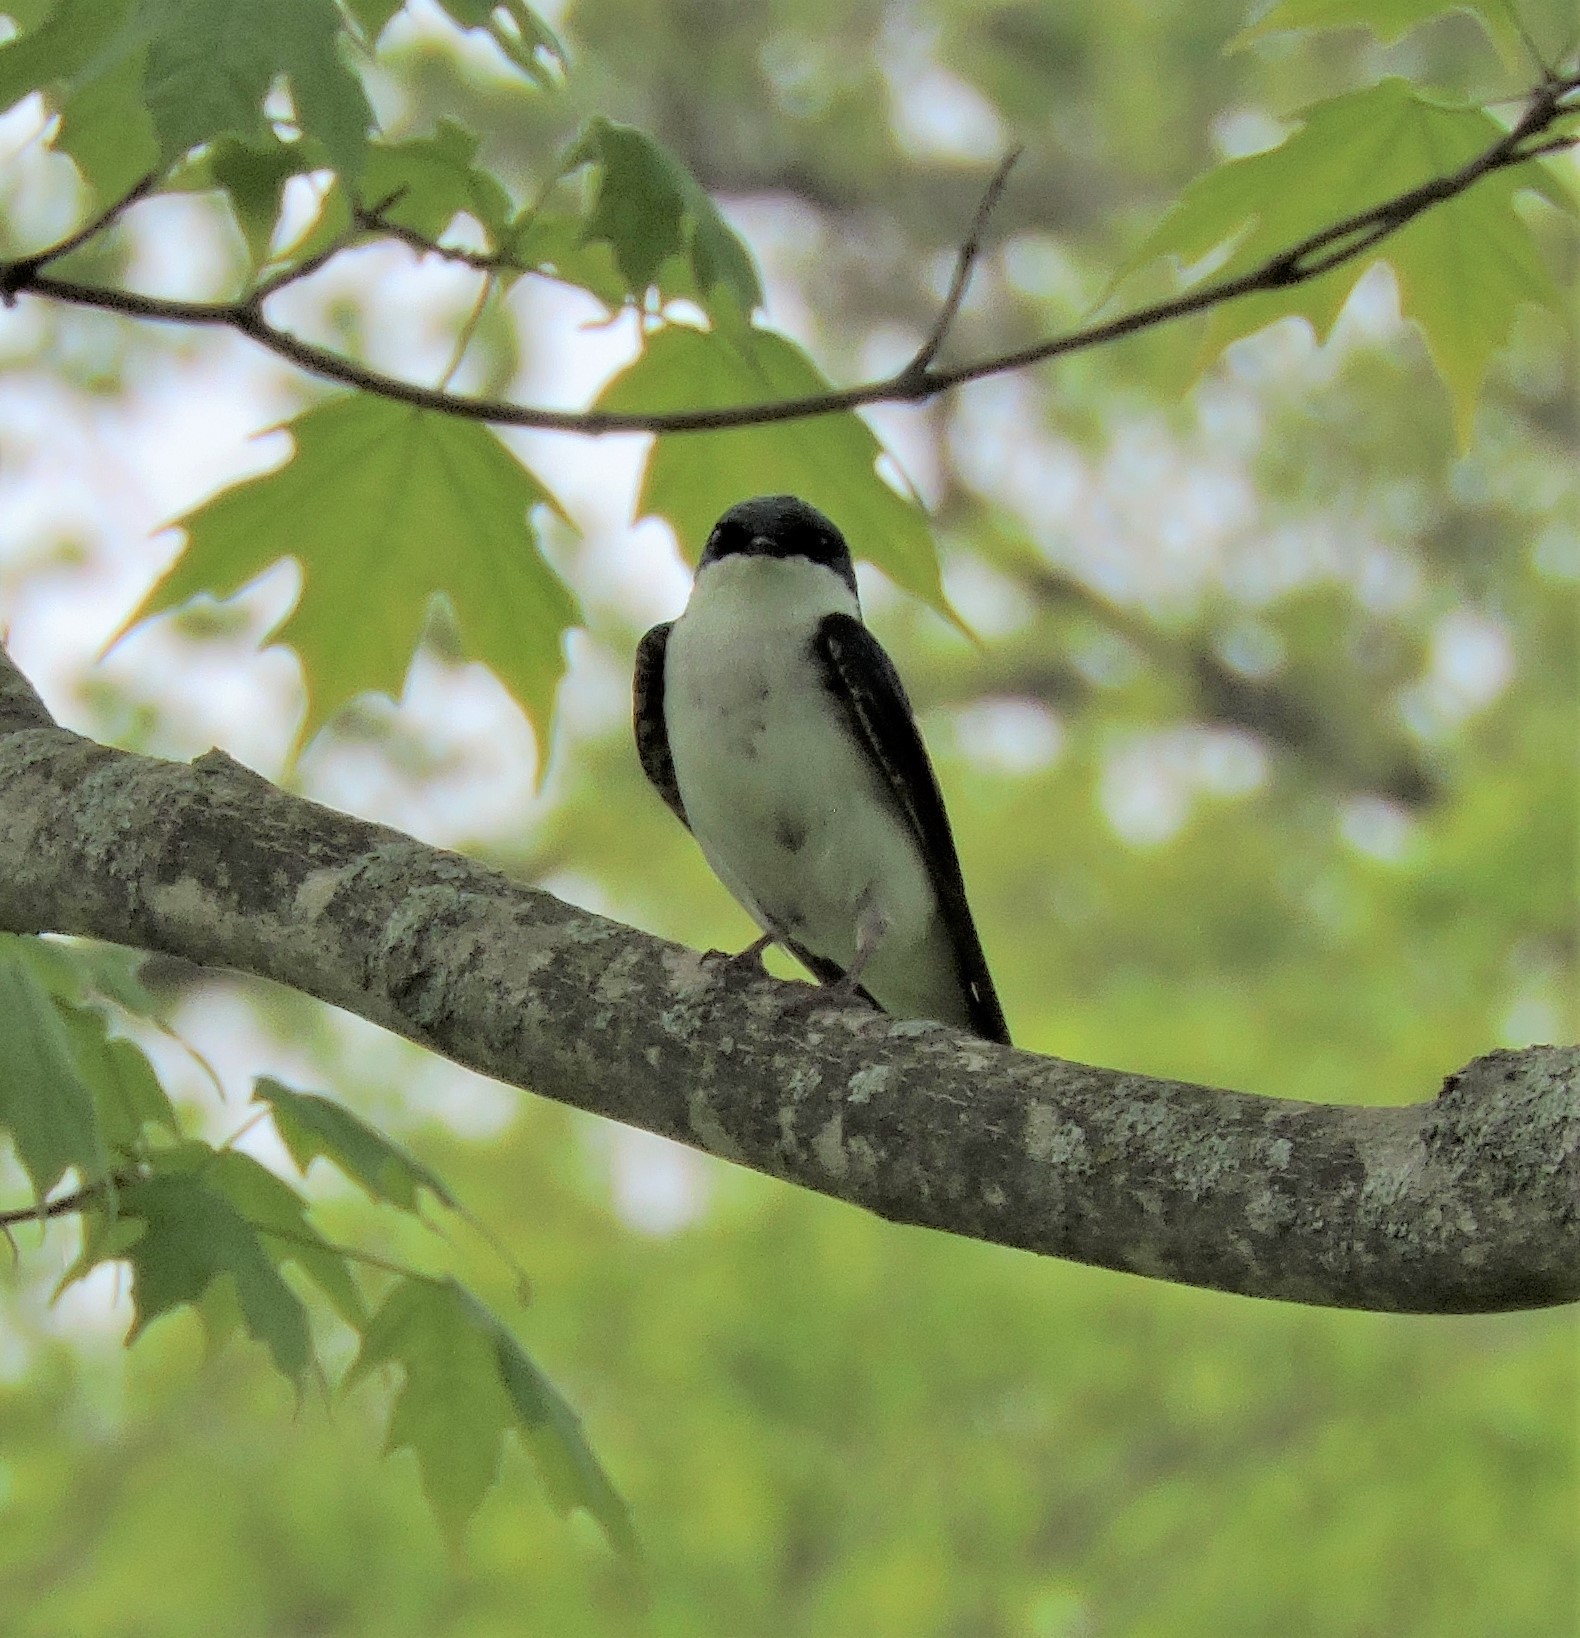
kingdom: Animalia
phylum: Chordata
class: Aves
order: Passeriformes
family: Hirundinidae
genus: Tachycineta
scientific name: Tachycineta bicolor
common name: Tree swallow
